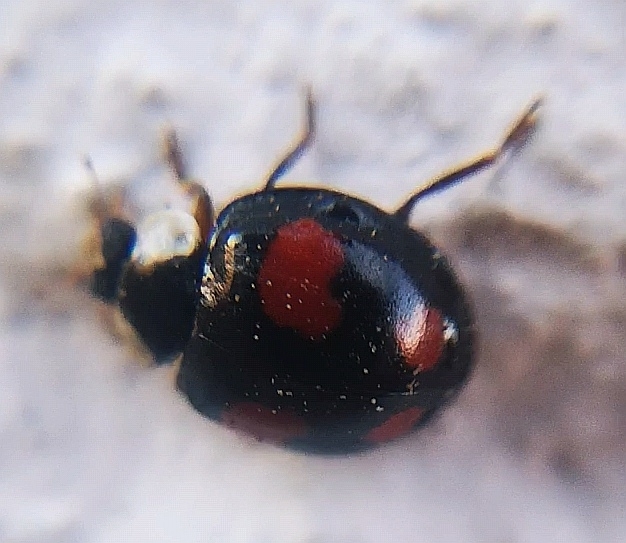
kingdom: Animalia
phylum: Arthropoda
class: Insecta
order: Coleoptera
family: Coccinellidae
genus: Harmonia
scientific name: Harmonia axyridis
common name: Harlequin ladybird
